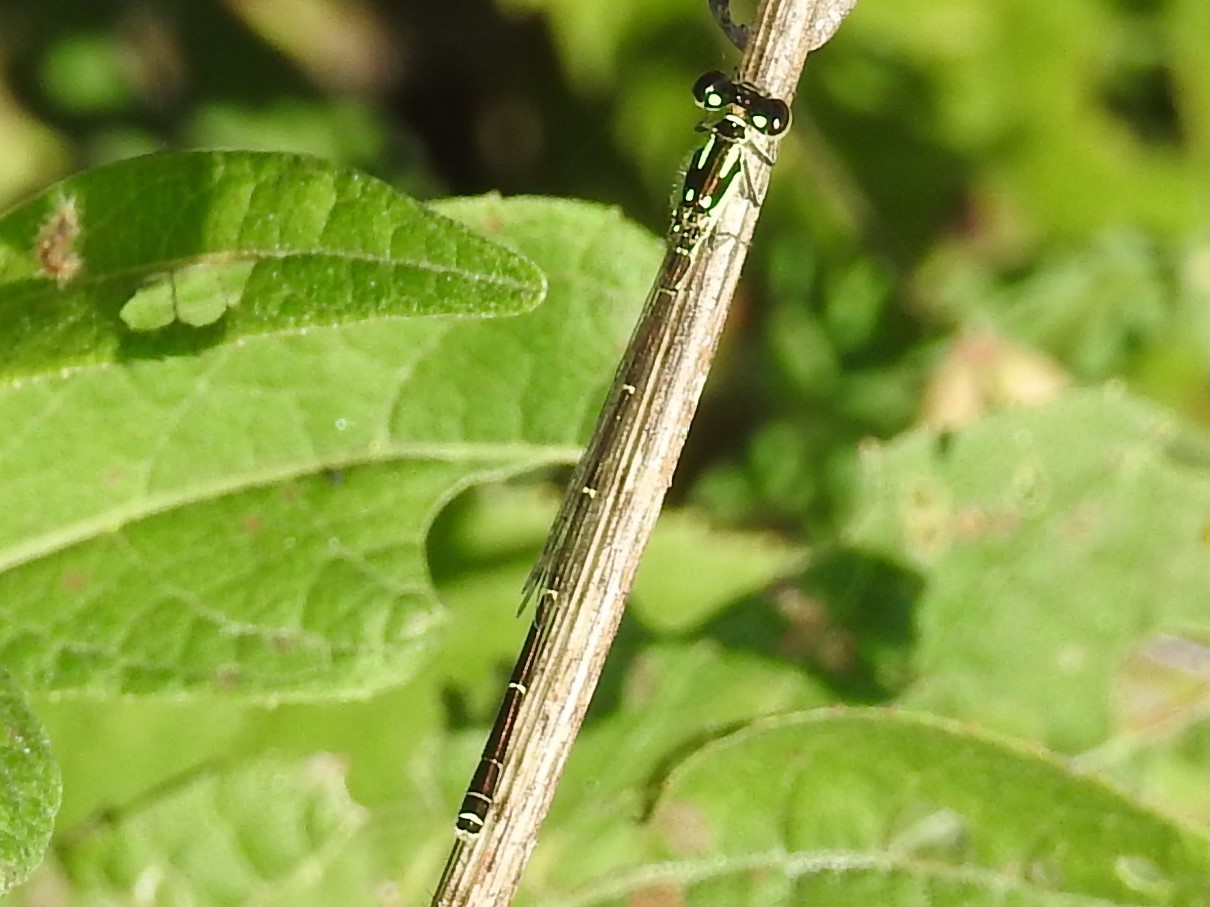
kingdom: Animalia
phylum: Arthropoda
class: Insecta
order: Odonata
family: Coenagrionidae
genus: Ischnura
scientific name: Ischnura posita
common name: Fragile forktail
